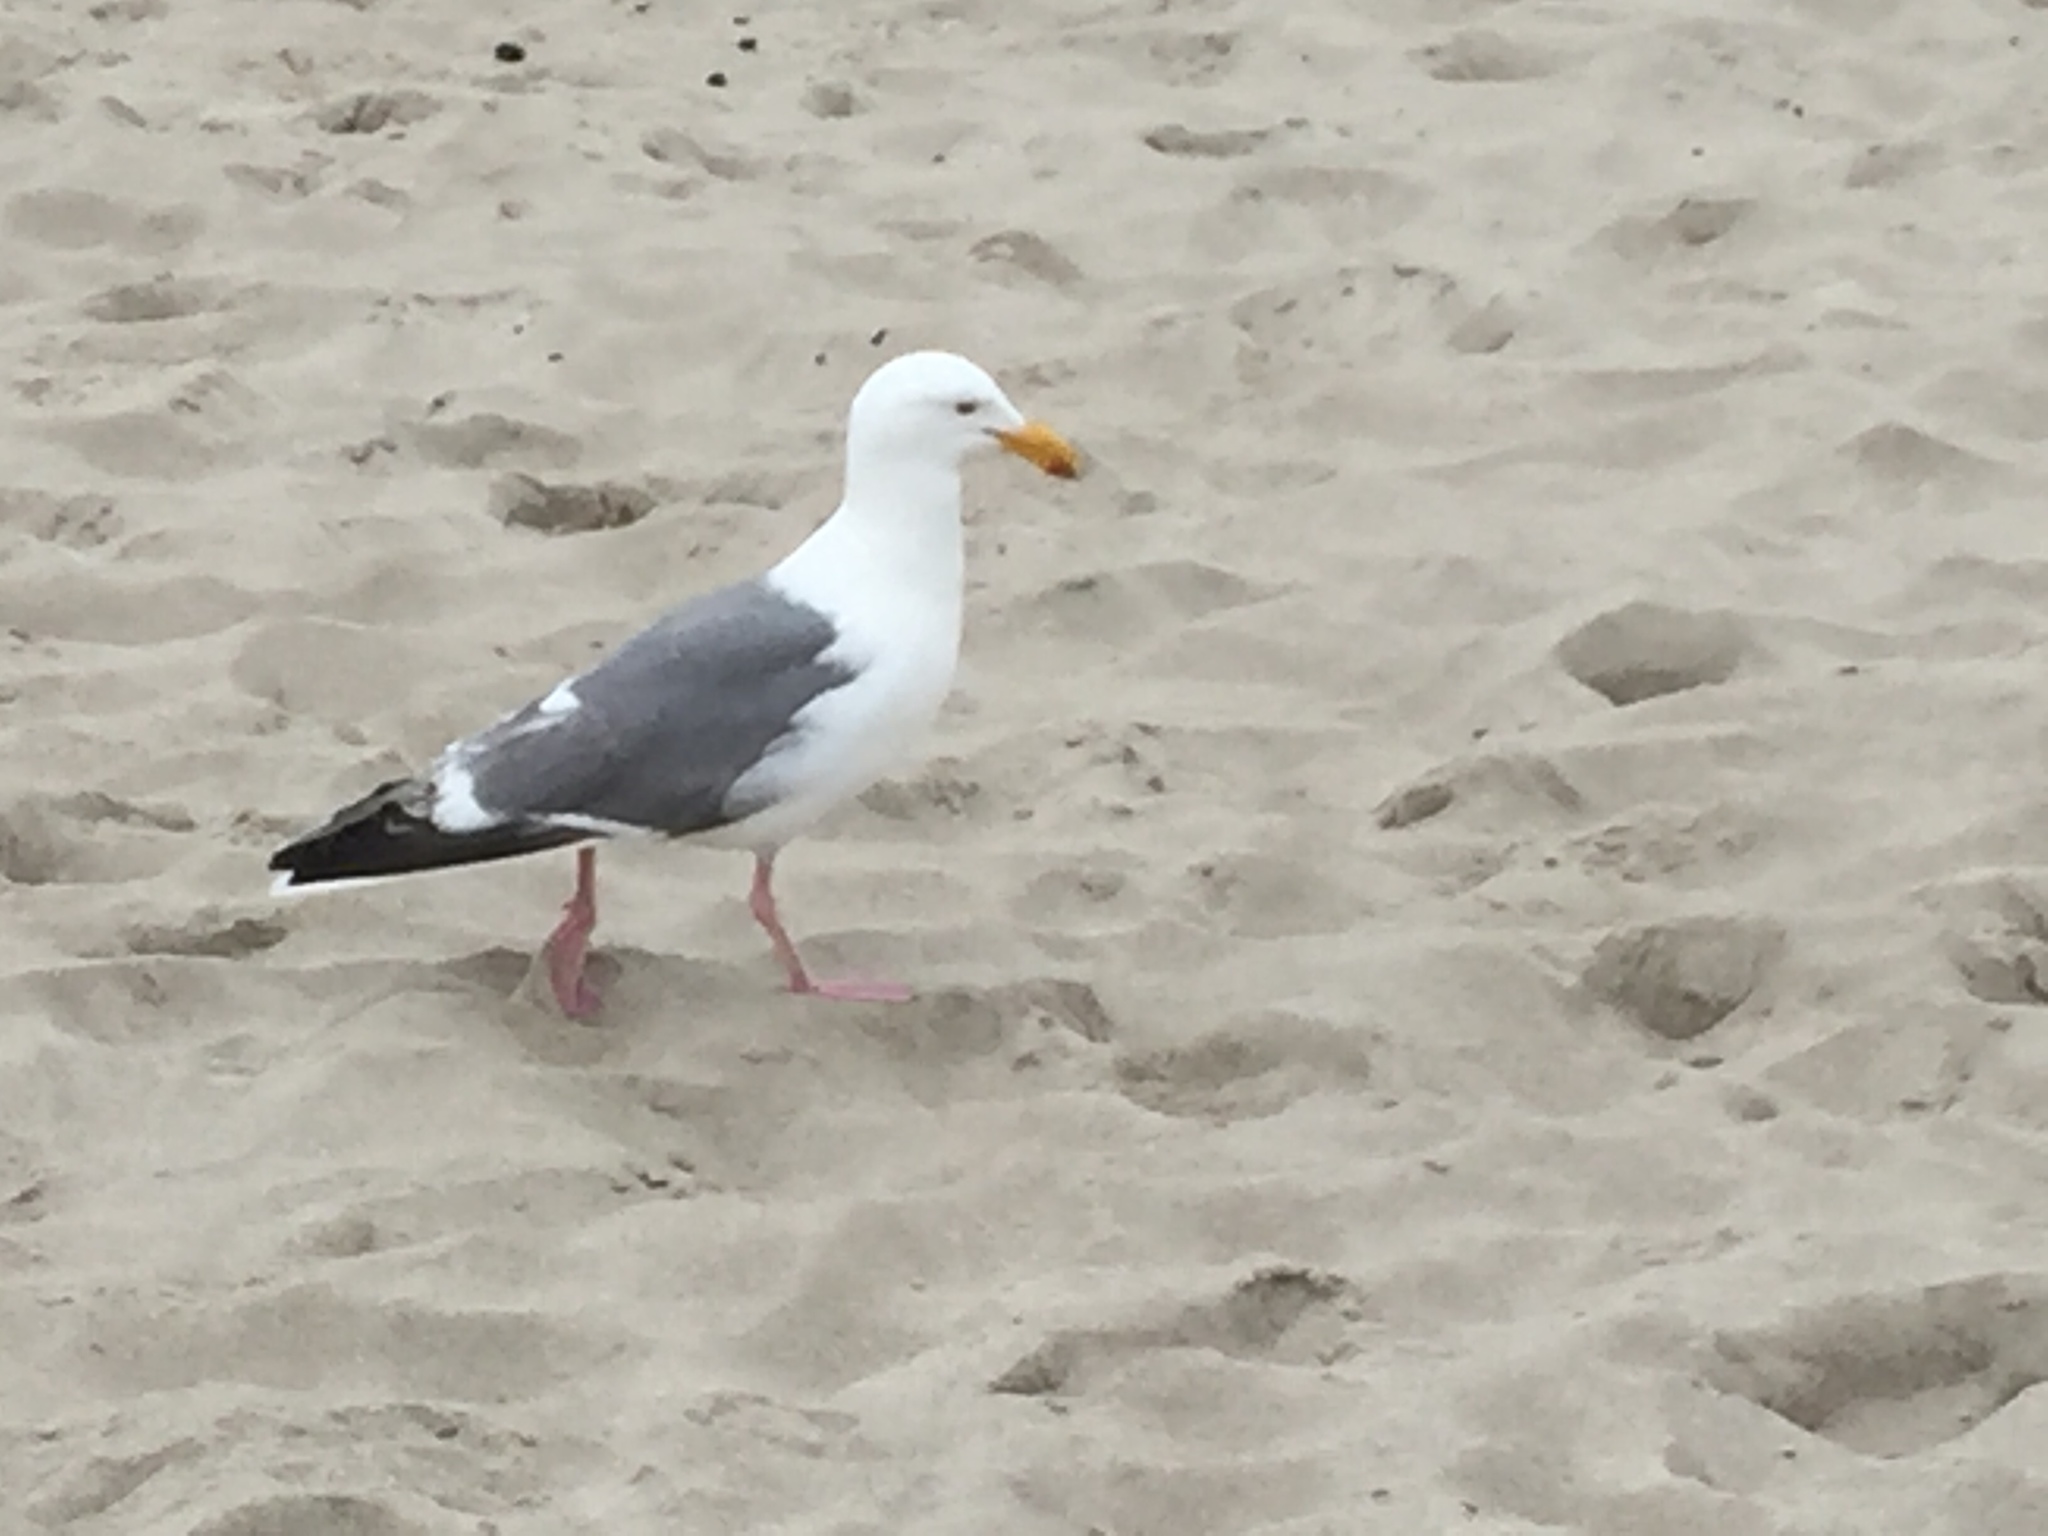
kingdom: Animalia
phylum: Chordata
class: Aves
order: Charadriiformes
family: Laridae
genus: Larus
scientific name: Larus occidentalis
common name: Western gull
